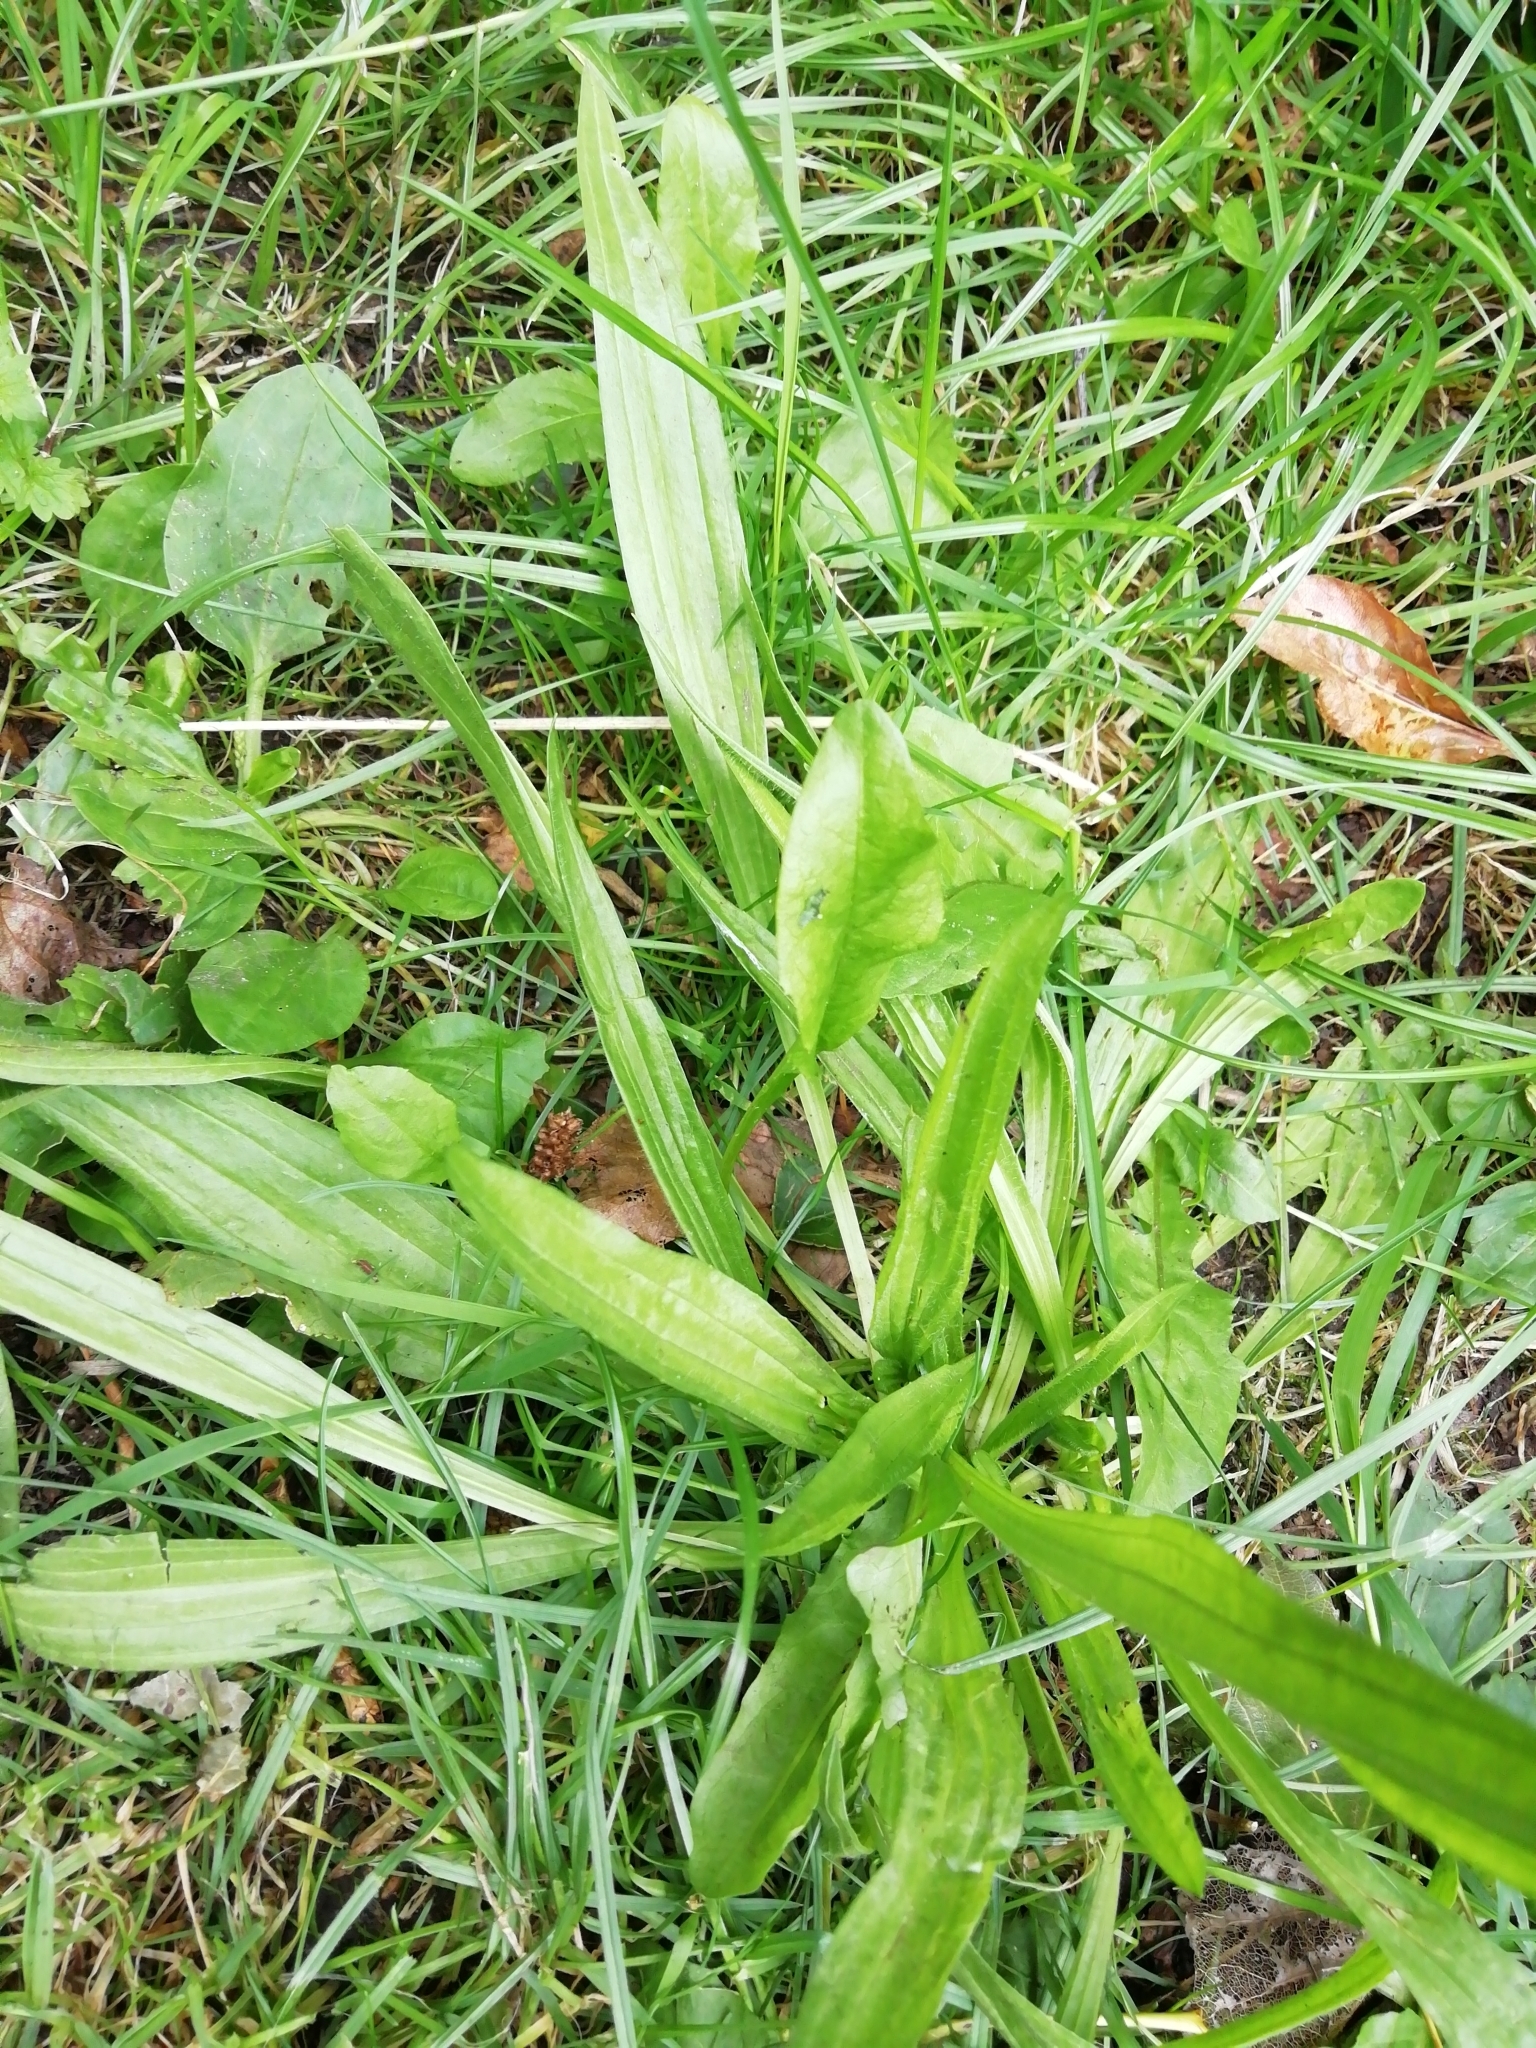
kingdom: Plantae
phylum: Tracheophyta
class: Magnoliopsida
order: Lamiales
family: Plantaginaceae
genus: Plantago
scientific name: Plantago lanceolata
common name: Ribwort plantain
